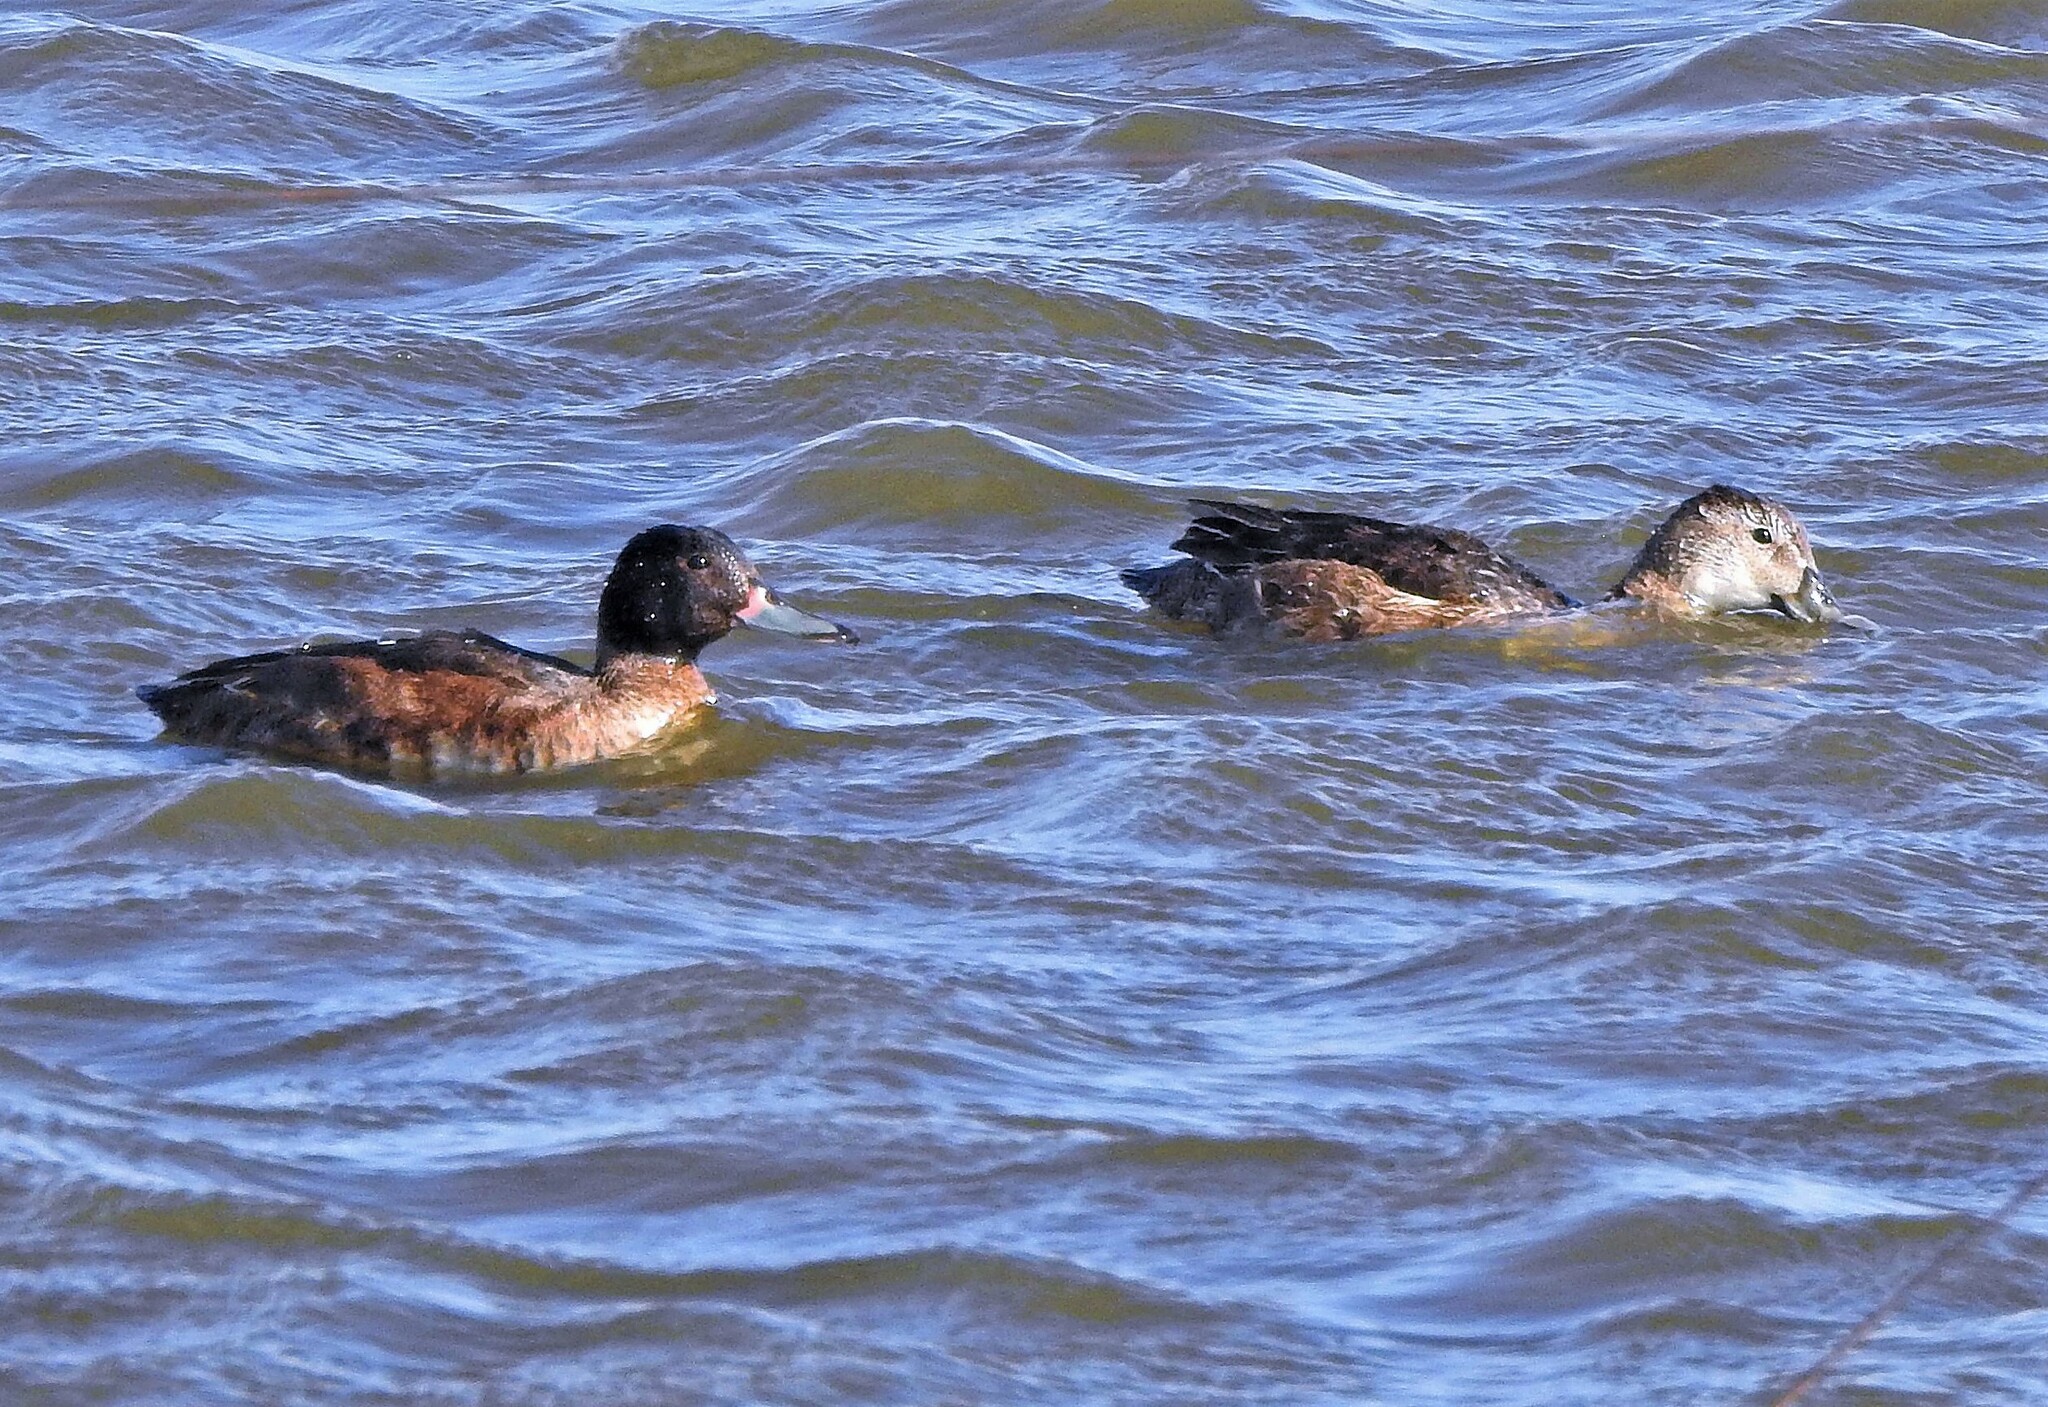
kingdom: Animalia
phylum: Chordata
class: Aves
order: Anseriformes
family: Anatidae
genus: Heteronetta
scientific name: Heteronetta atricapilla
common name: Black-headed duck
